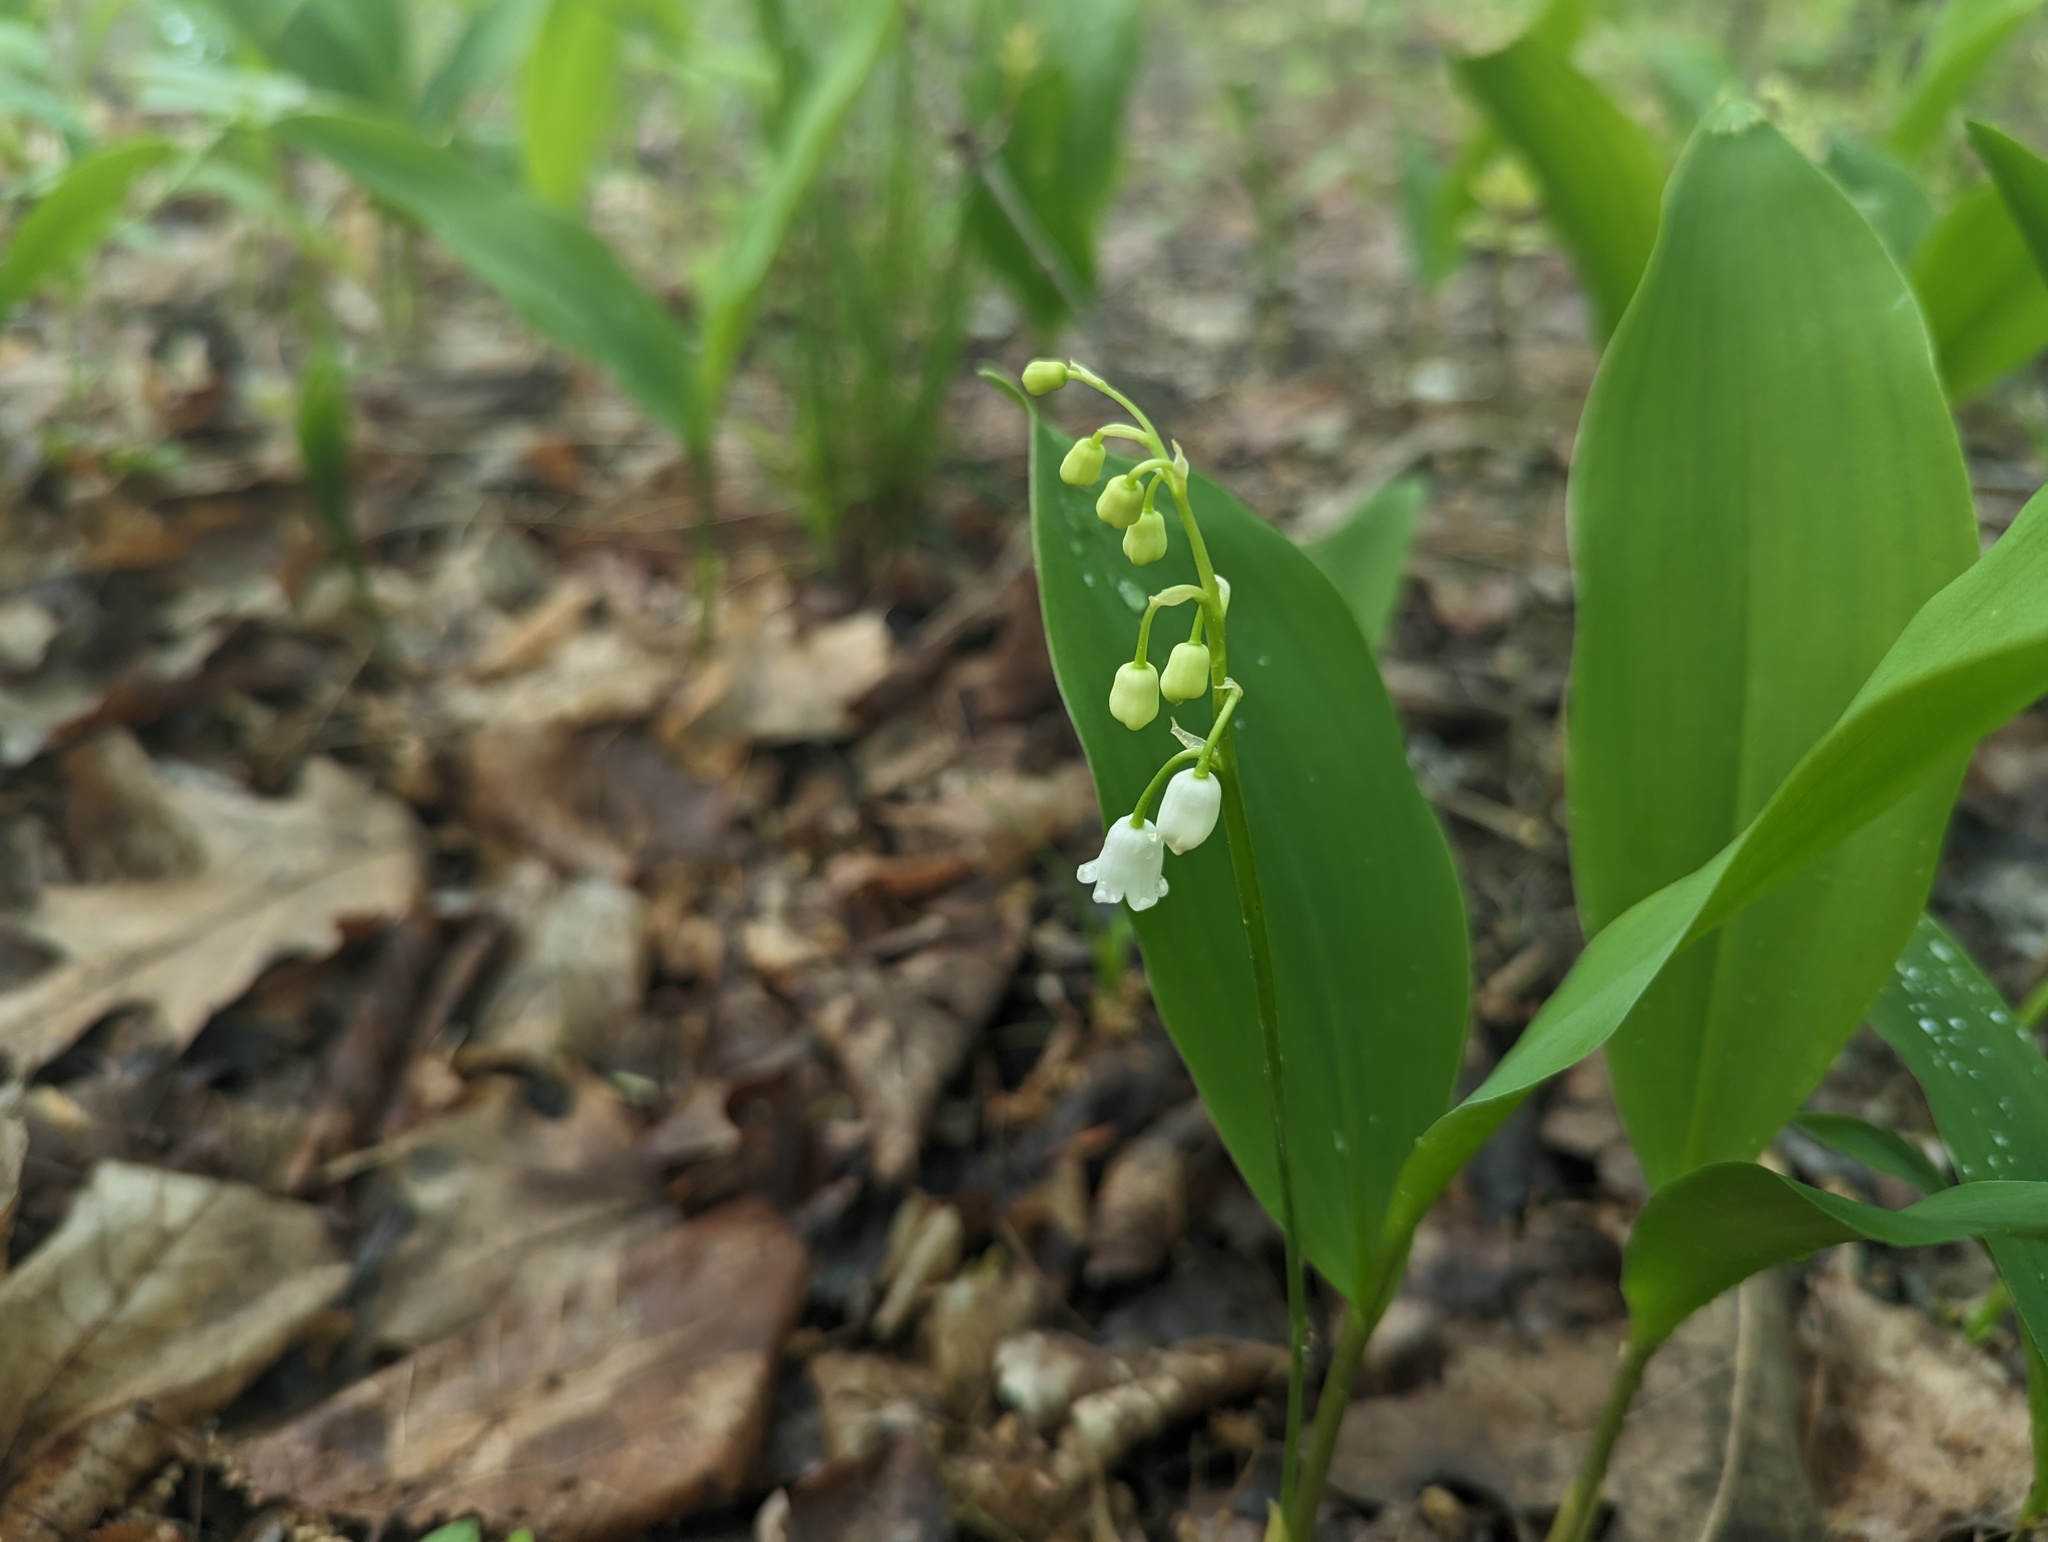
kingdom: Plantae
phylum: Tracheophyta
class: Liliopsida
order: Asparagales
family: Asparagaceae
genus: Convallaria
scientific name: Convallaria majalis
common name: Lily-of-the-valley
